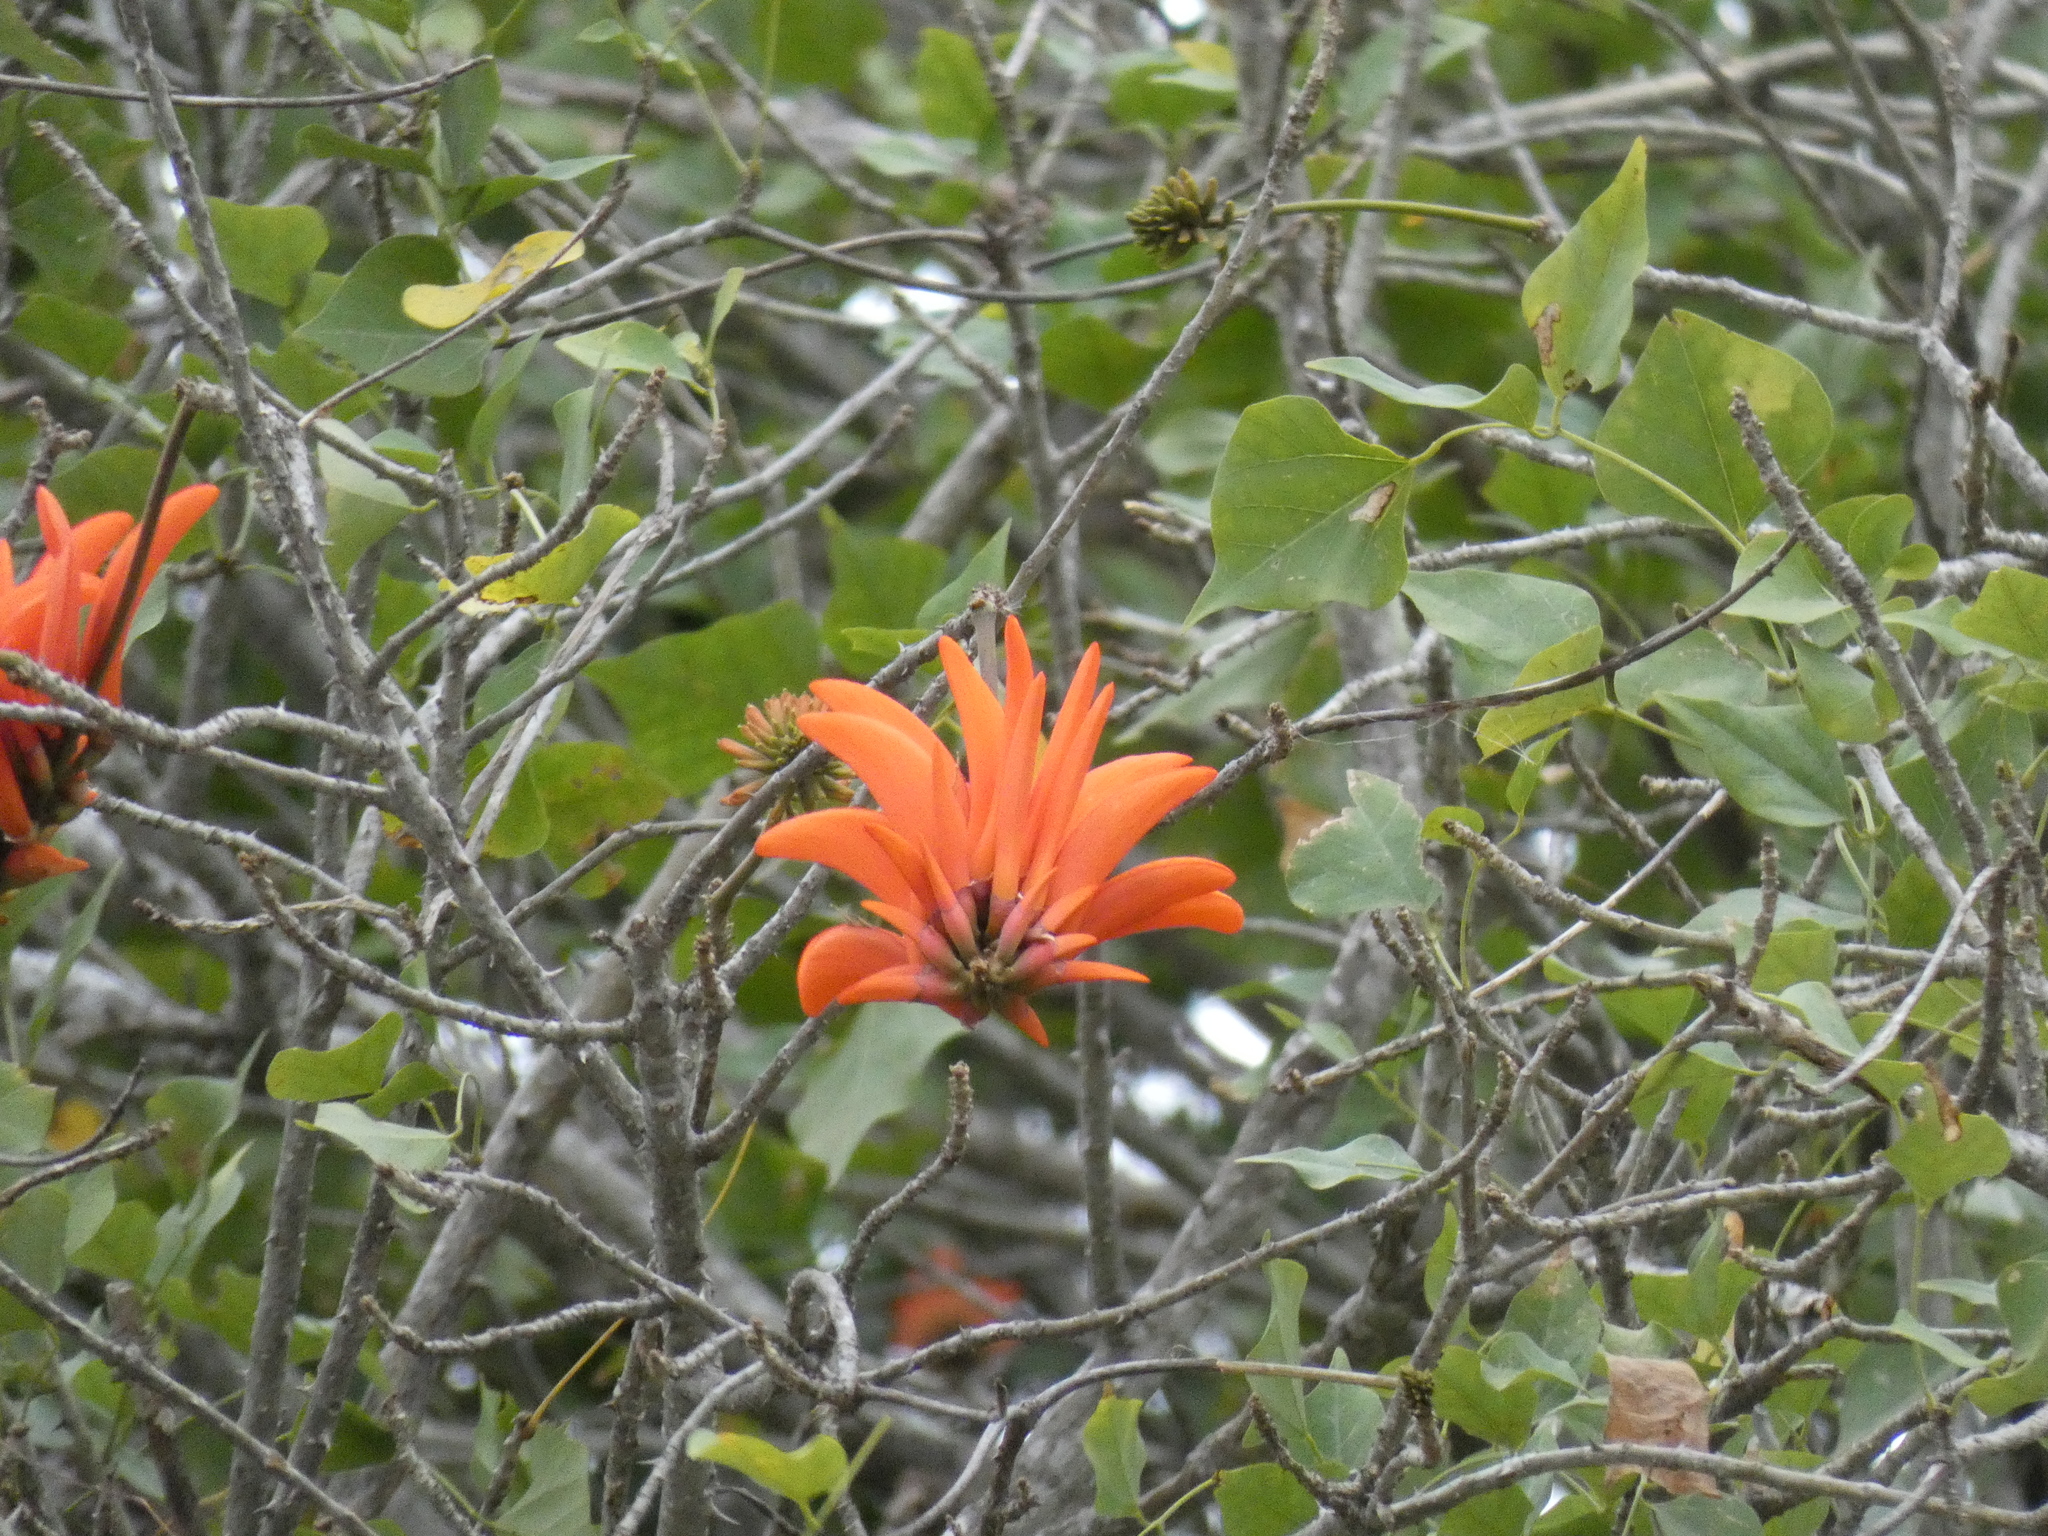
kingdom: Plantae
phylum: Tracheophyta
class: Magnoliopsida
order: Fabales
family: Fabaceae
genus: Erythrina
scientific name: Erythrina lysistemon
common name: Common coral tree
